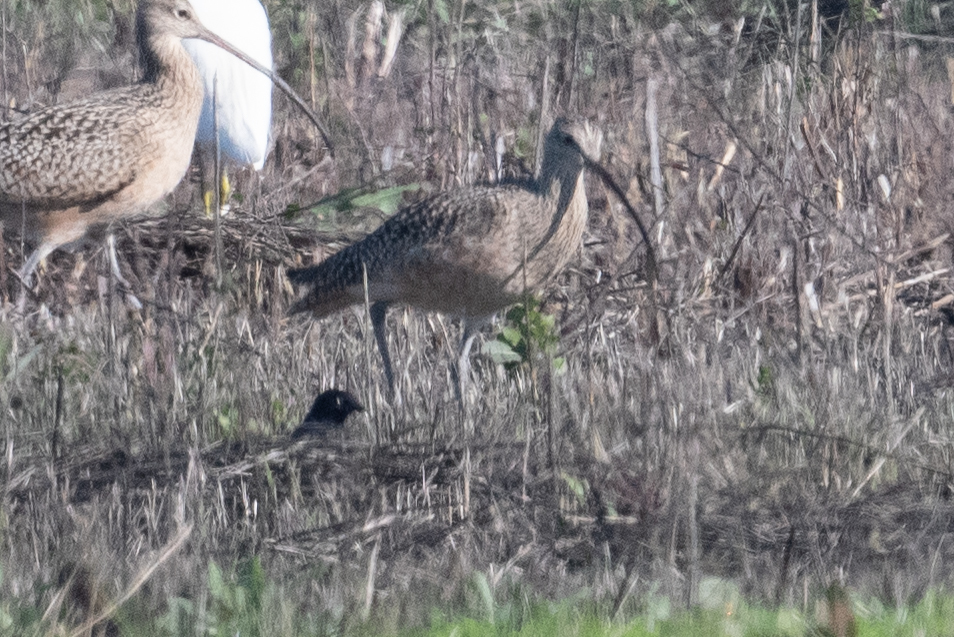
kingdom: Animalia
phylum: Chordata
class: Aves
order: Charadriiformes
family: Scolopacidae
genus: Numenius
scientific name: Numenius americanus
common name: Long-billed curlew
